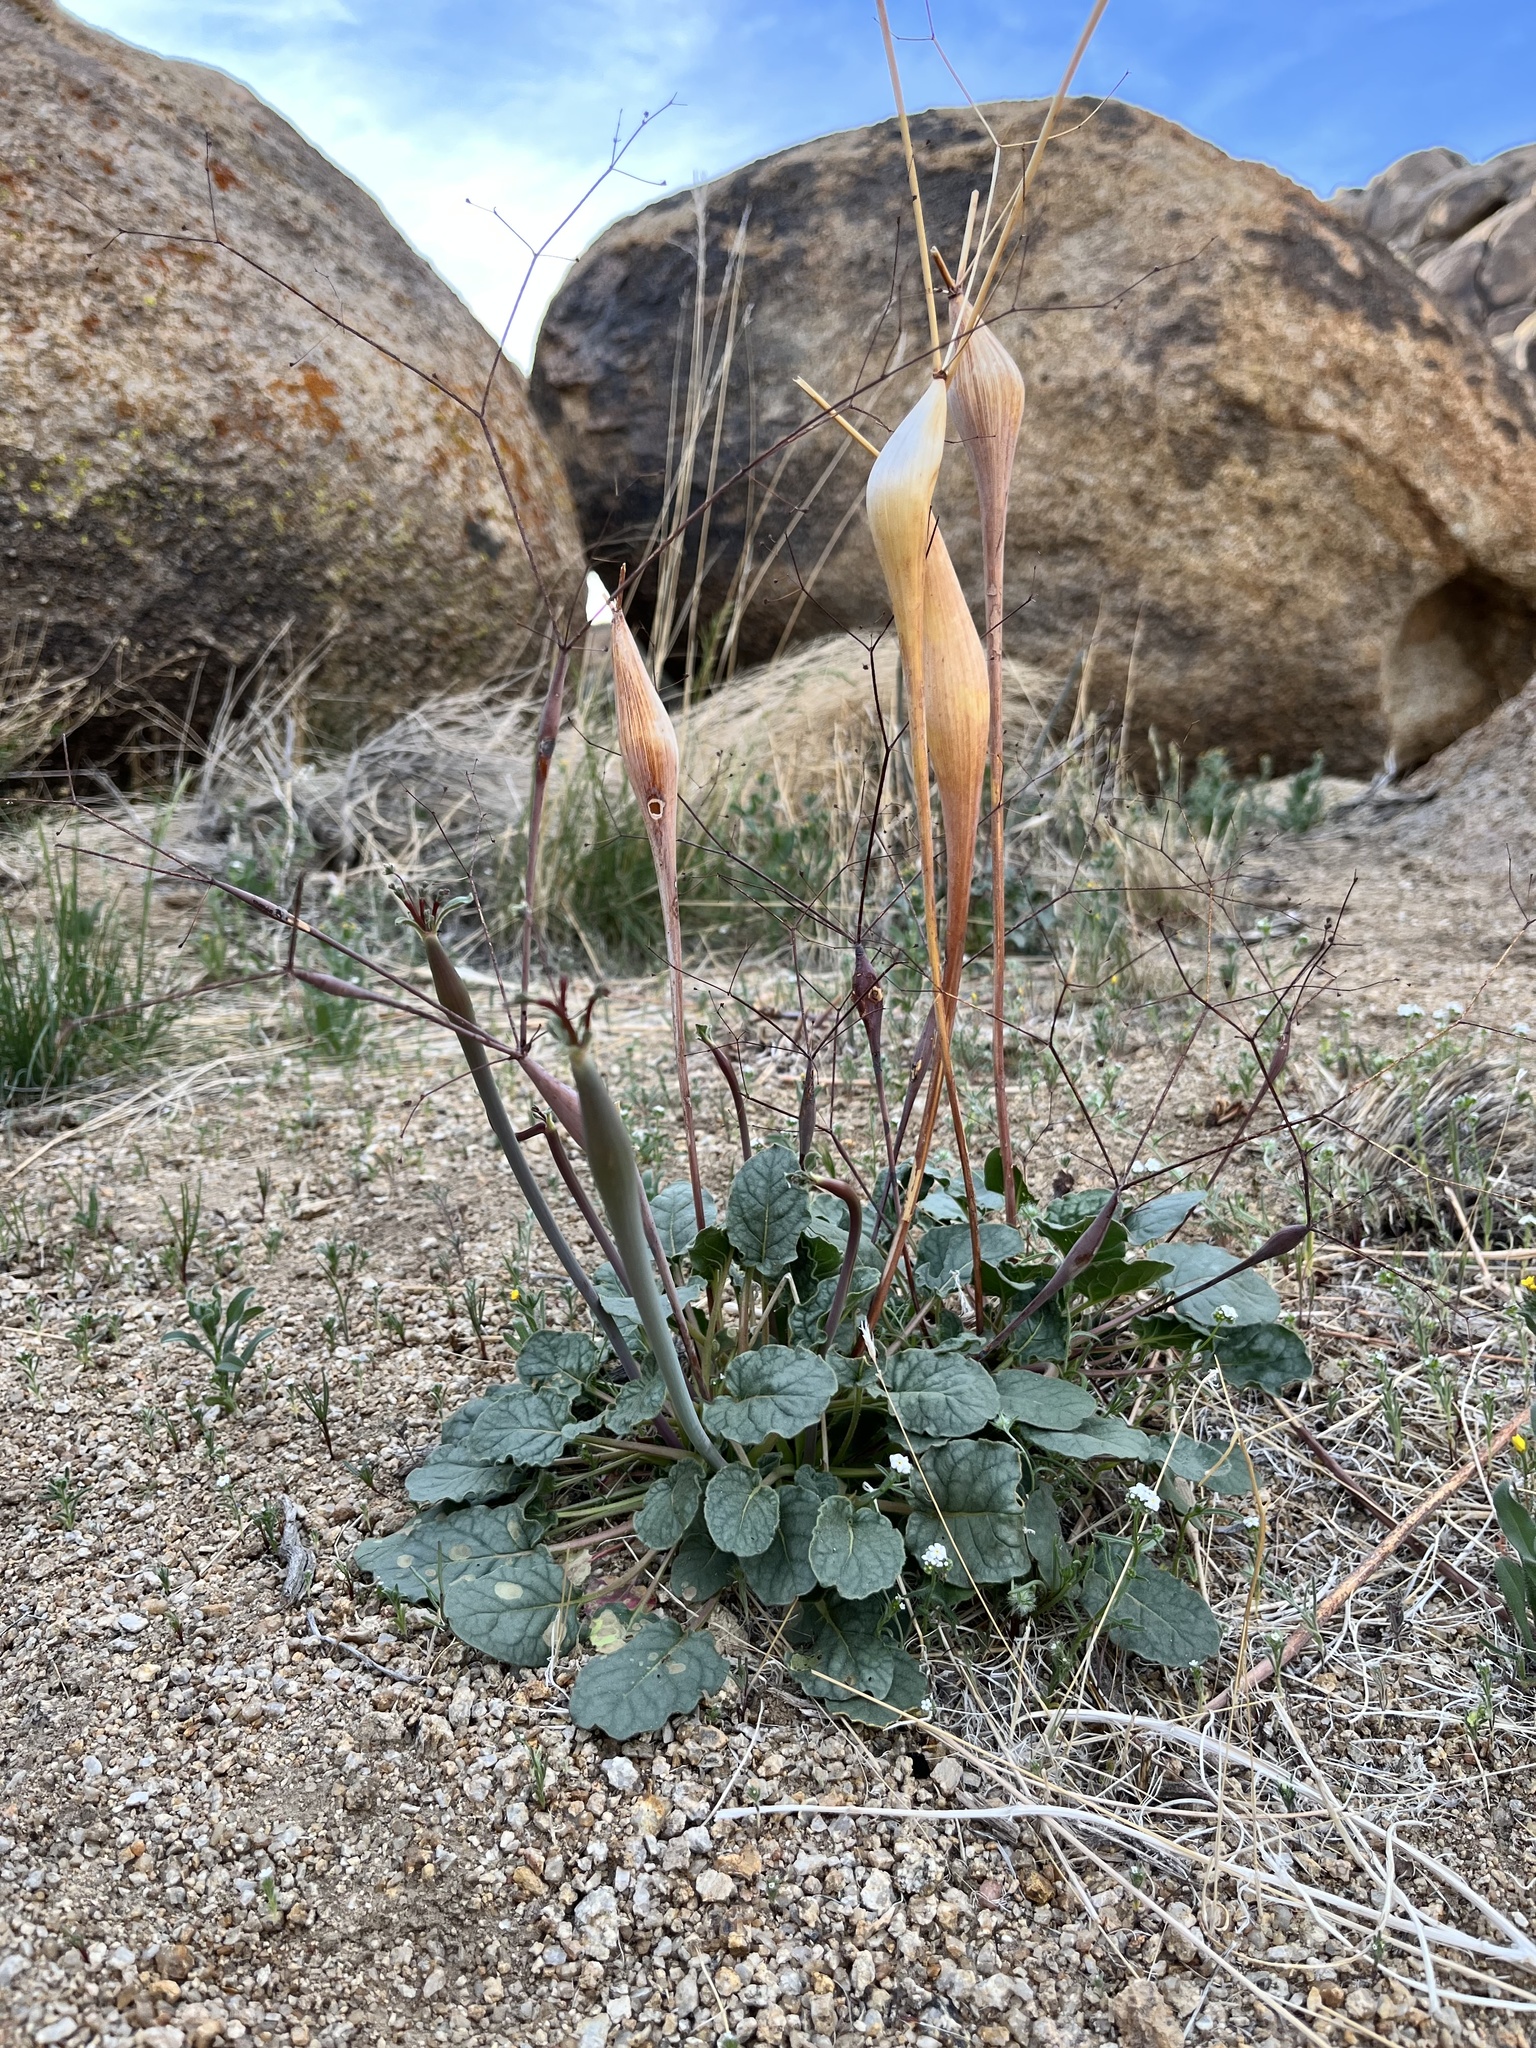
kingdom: Plantae
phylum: Tracheophyta
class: Magnoliopsida
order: Caryophyllales
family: Polygonaceae
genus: Eriogonum
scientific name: Eriogonum inflatum
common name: Desert trumpet
